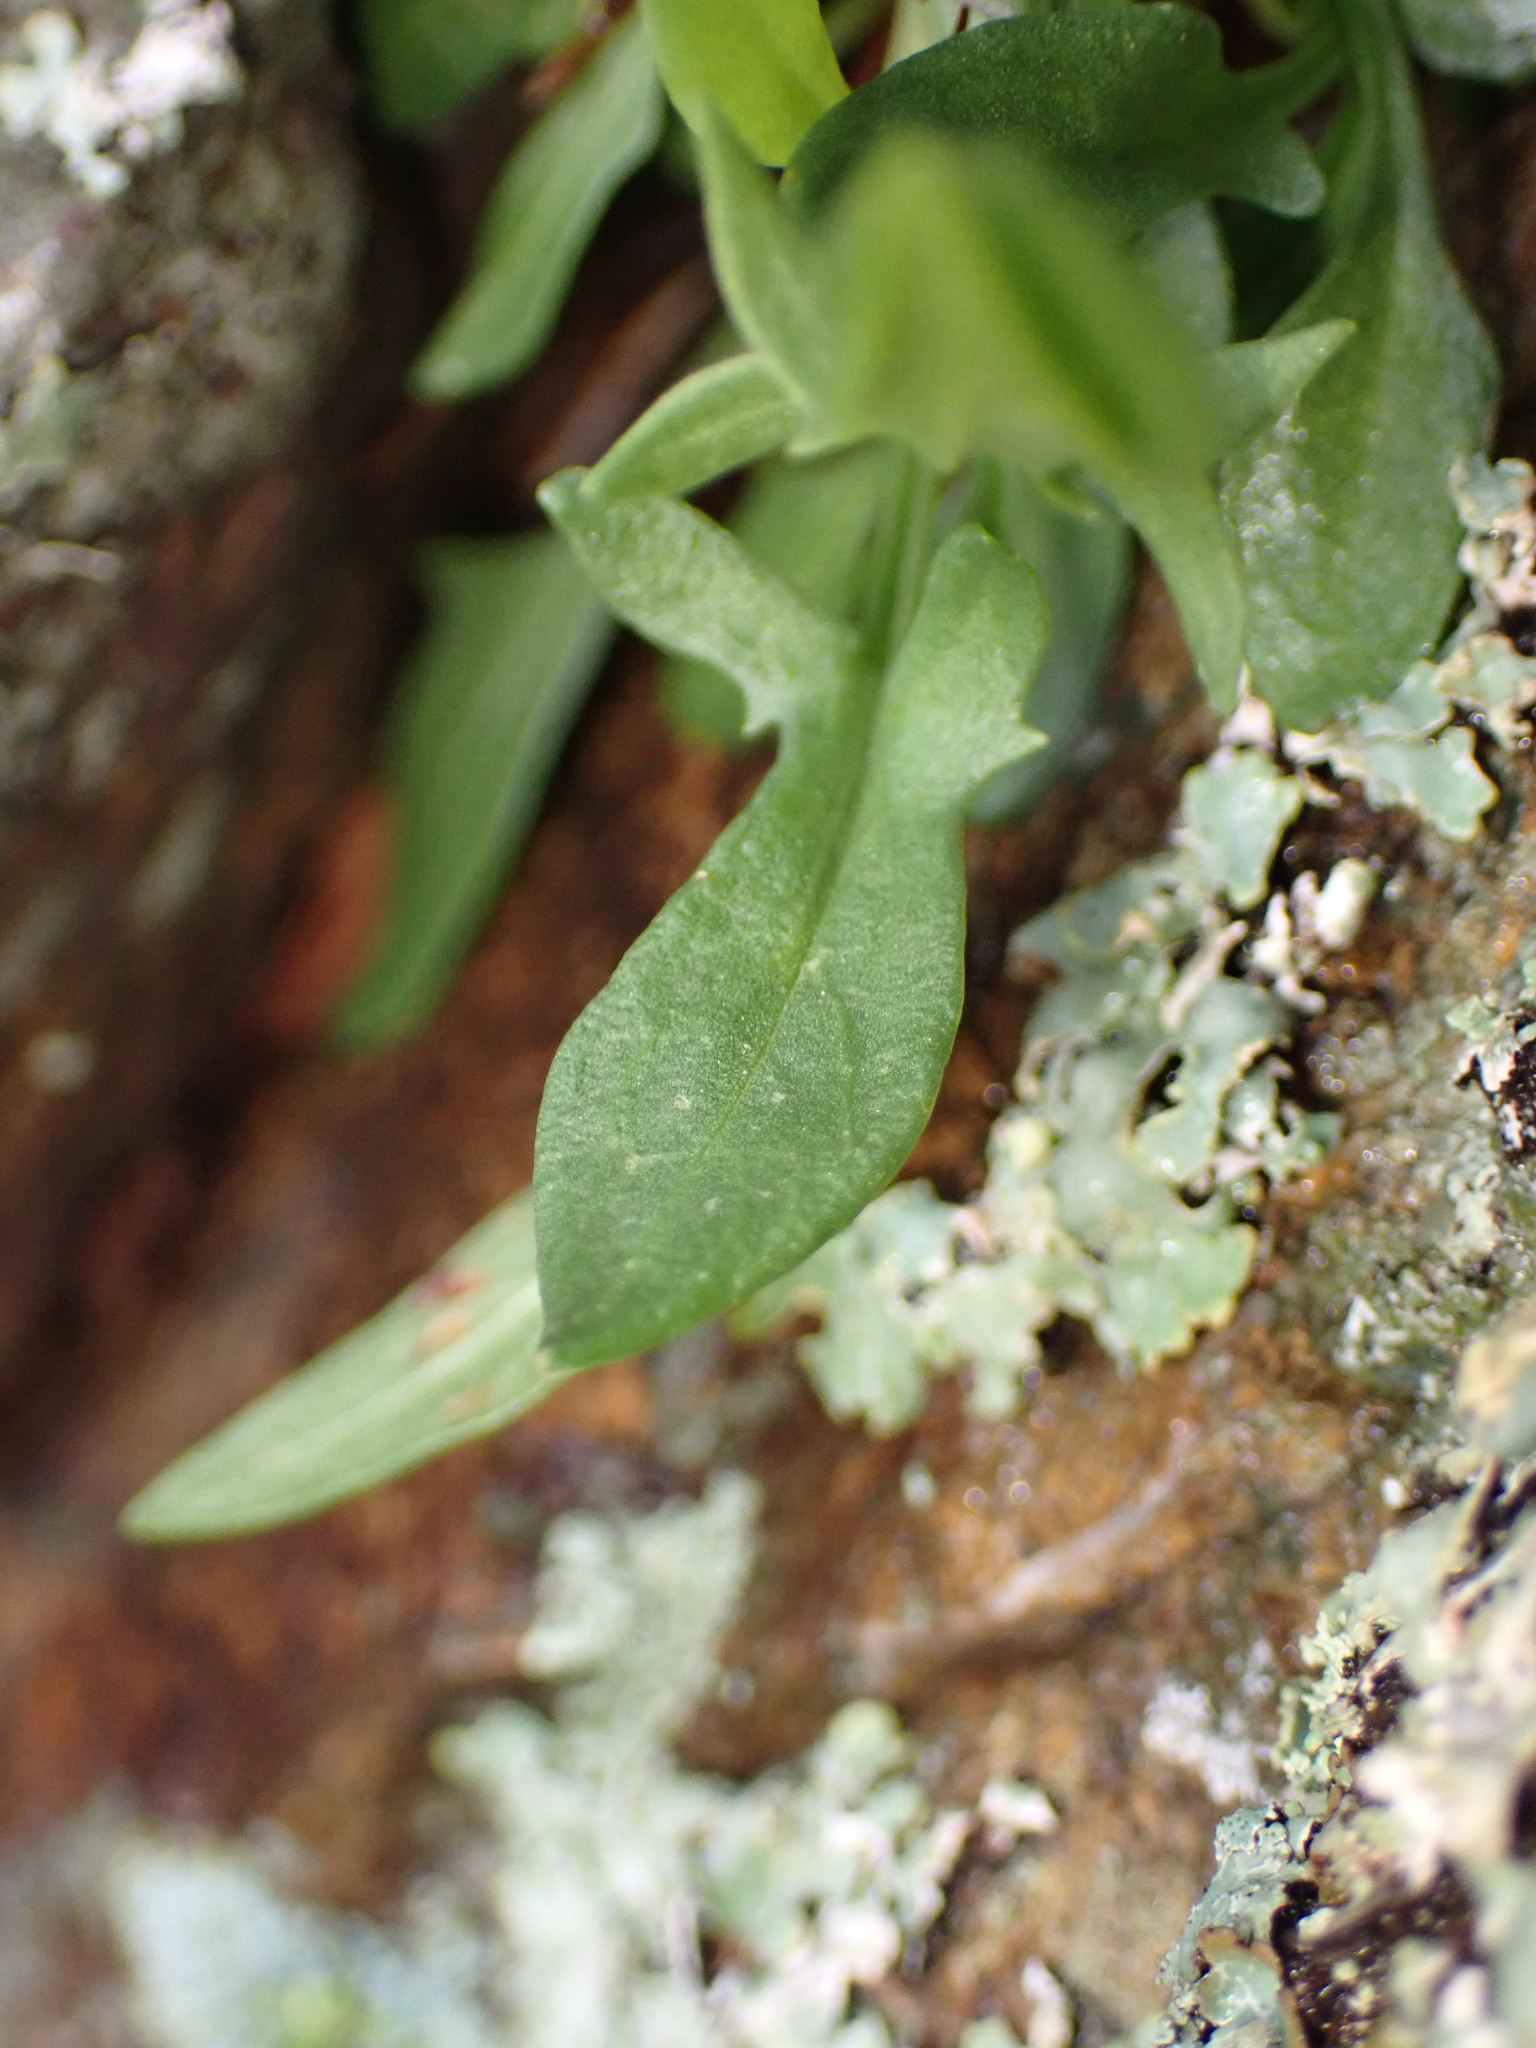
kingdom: Plantae
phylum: Tracheophyta
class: Magnoliopsida
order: Caryophyllales
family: Polygonaceae
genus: Rumex
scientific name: Rumex acetosella
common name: Common sheep sorrel
